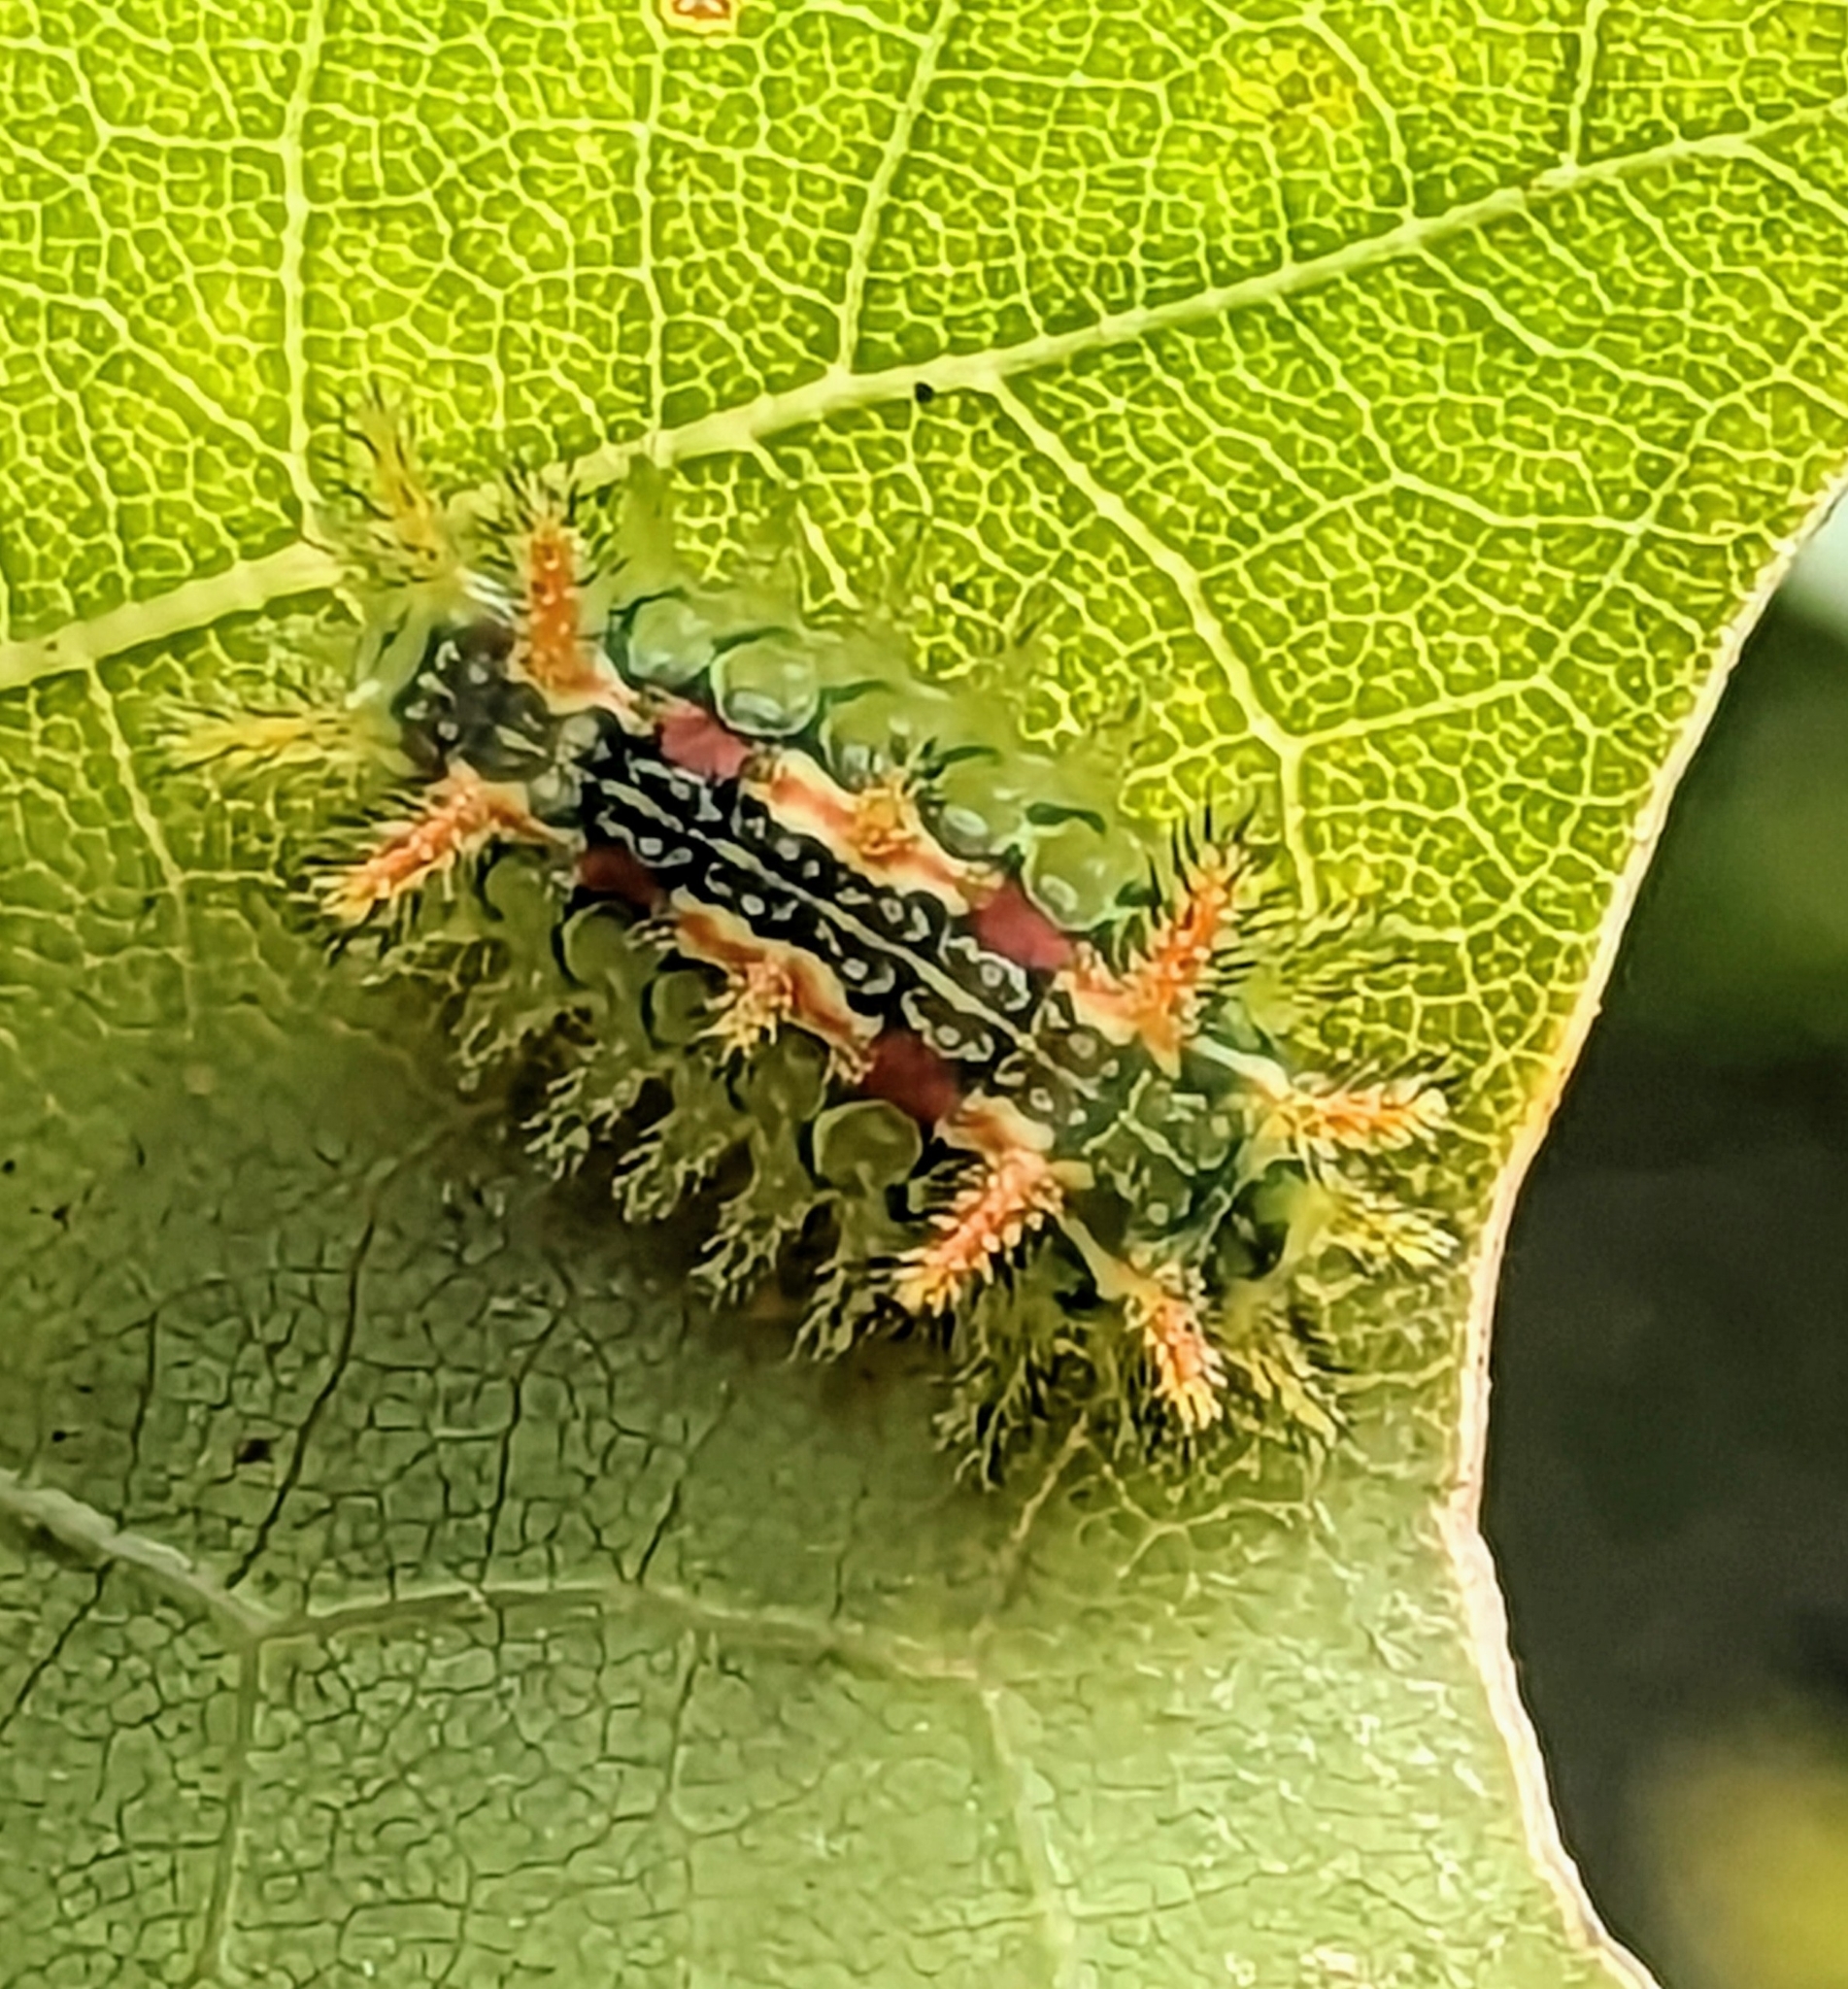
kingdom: Animalia
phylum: Arthropoda
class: Insecta
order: Lepidoptera
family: Limacodidae
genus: Euclea
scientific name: Euclea delphinii
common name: Spiny oak-slug moth
